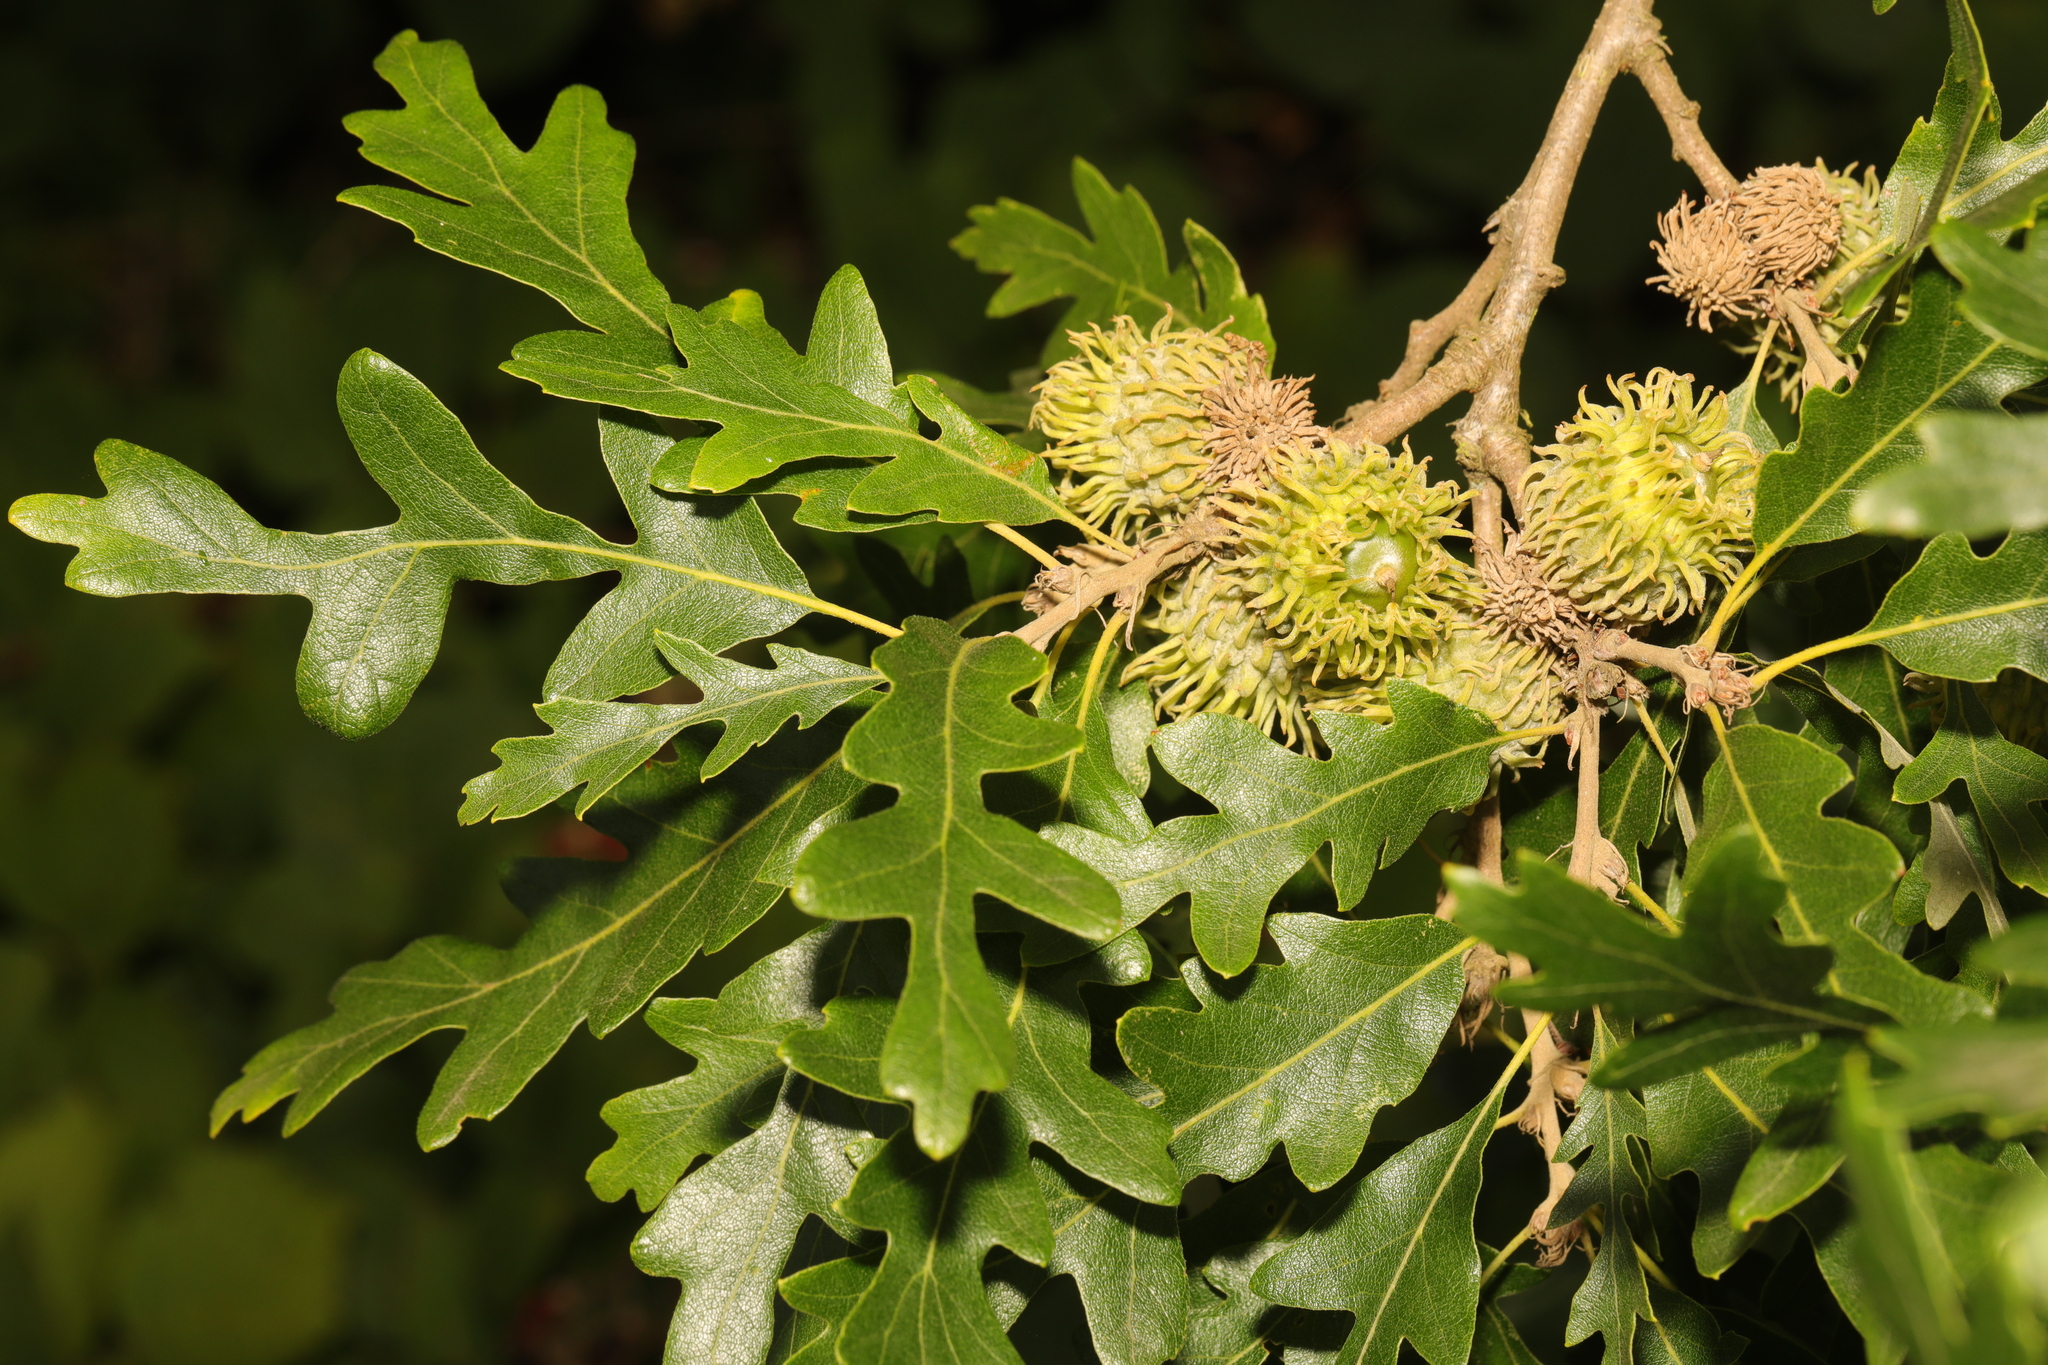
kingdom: Plantae
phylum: Tracheophyta
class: Magnoliopsida
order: Fagales
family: Fagaceae
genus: Quercus
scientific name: Quercus cerris
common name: Turkey oak
